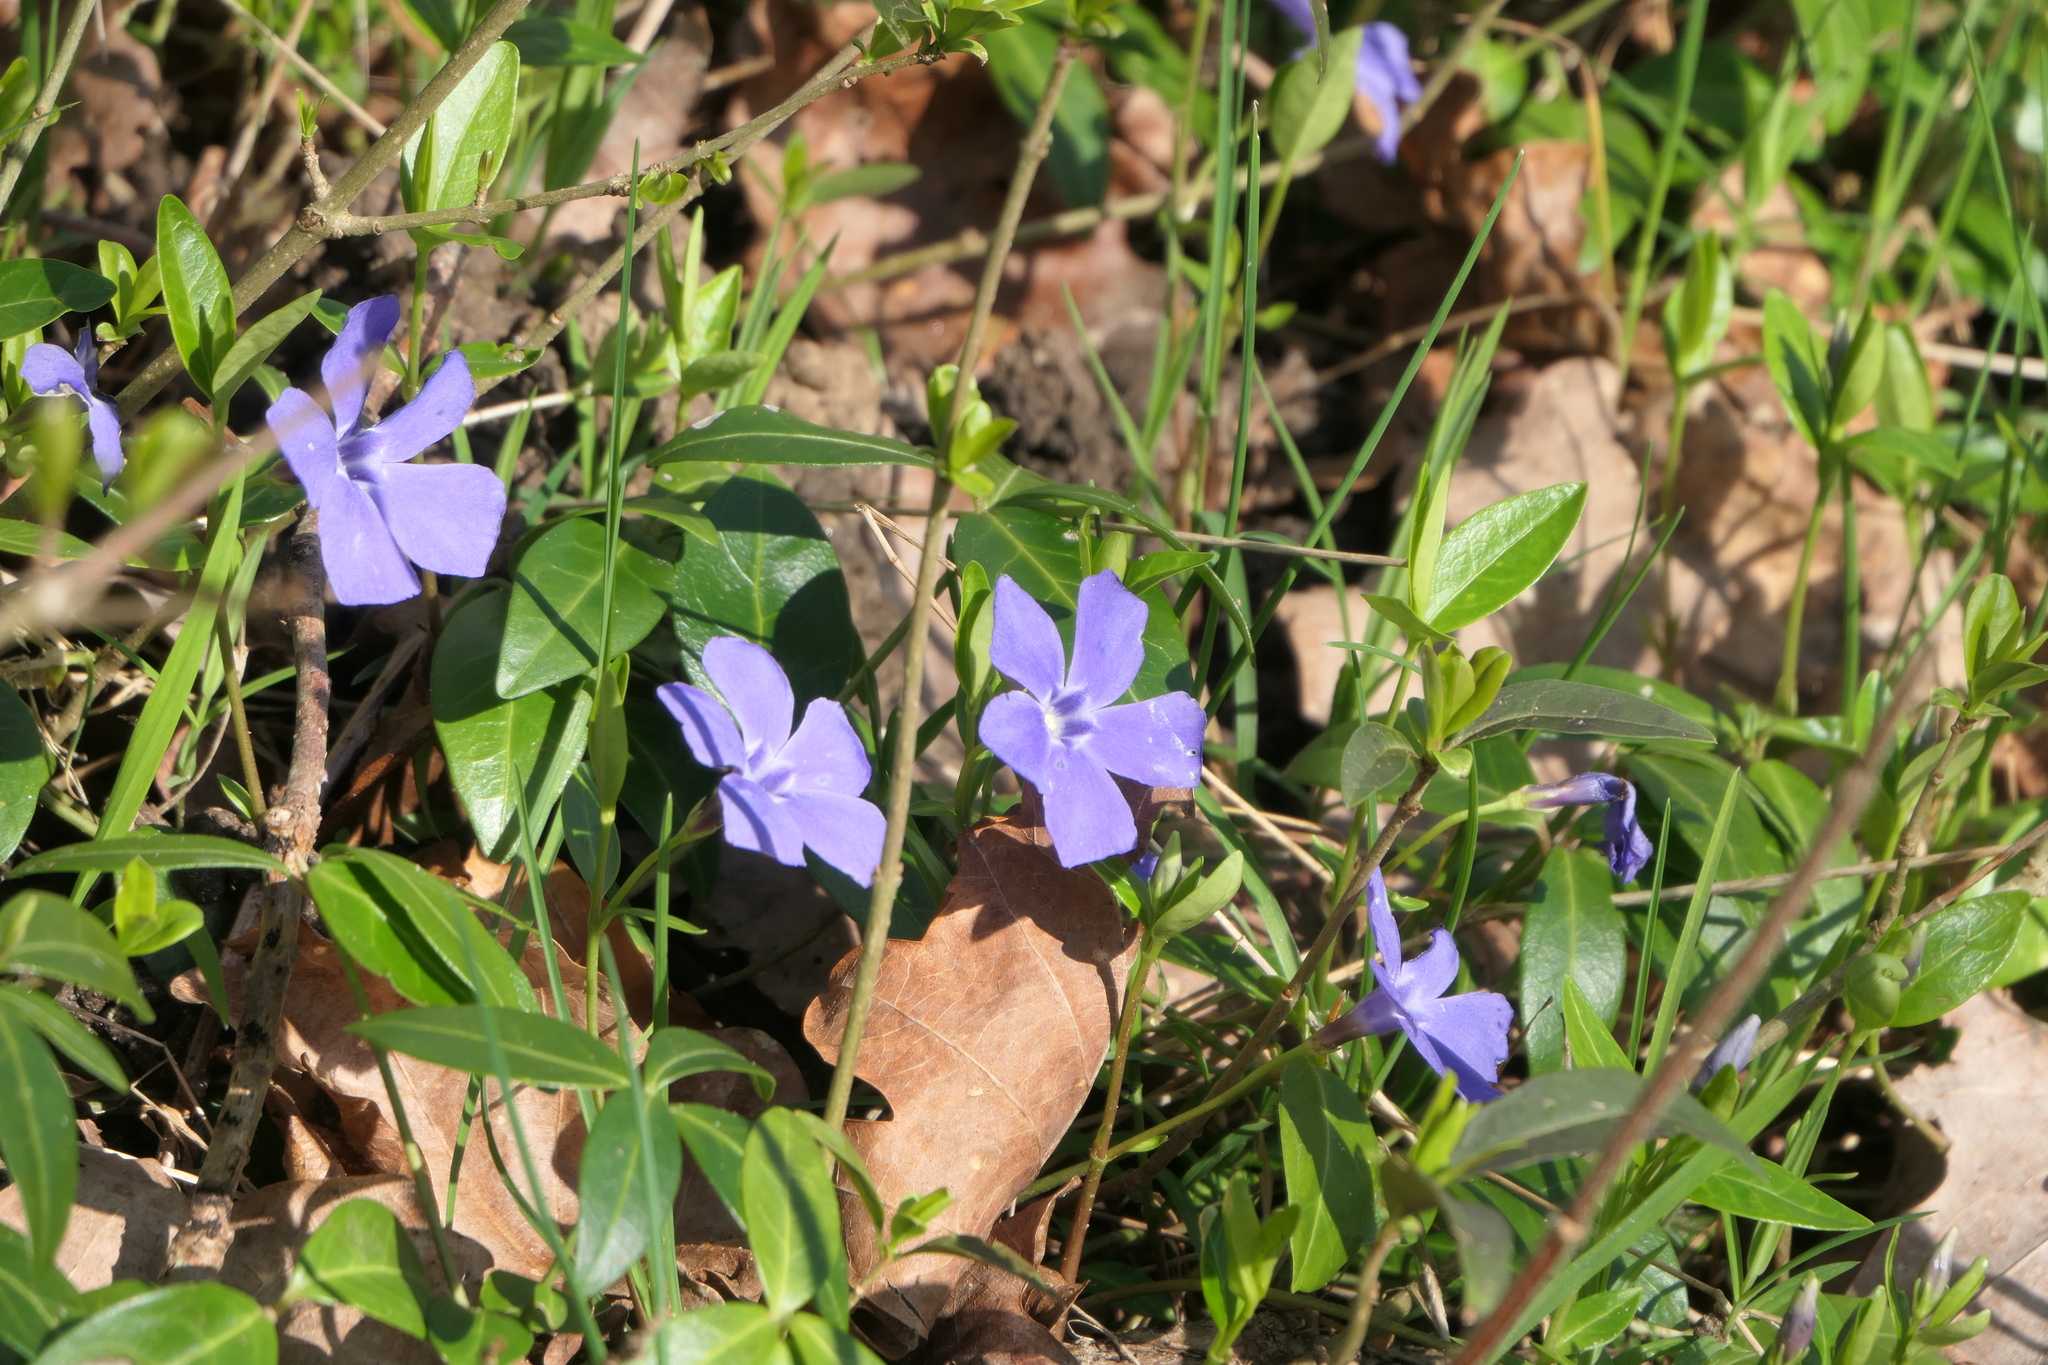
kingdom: Plantae
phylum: Tracheophyta
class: Magnoliopsida
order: Gentianales
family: Apocynaceae
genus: Vinca
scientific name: Vinca minor
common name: Lesser periwinkle
